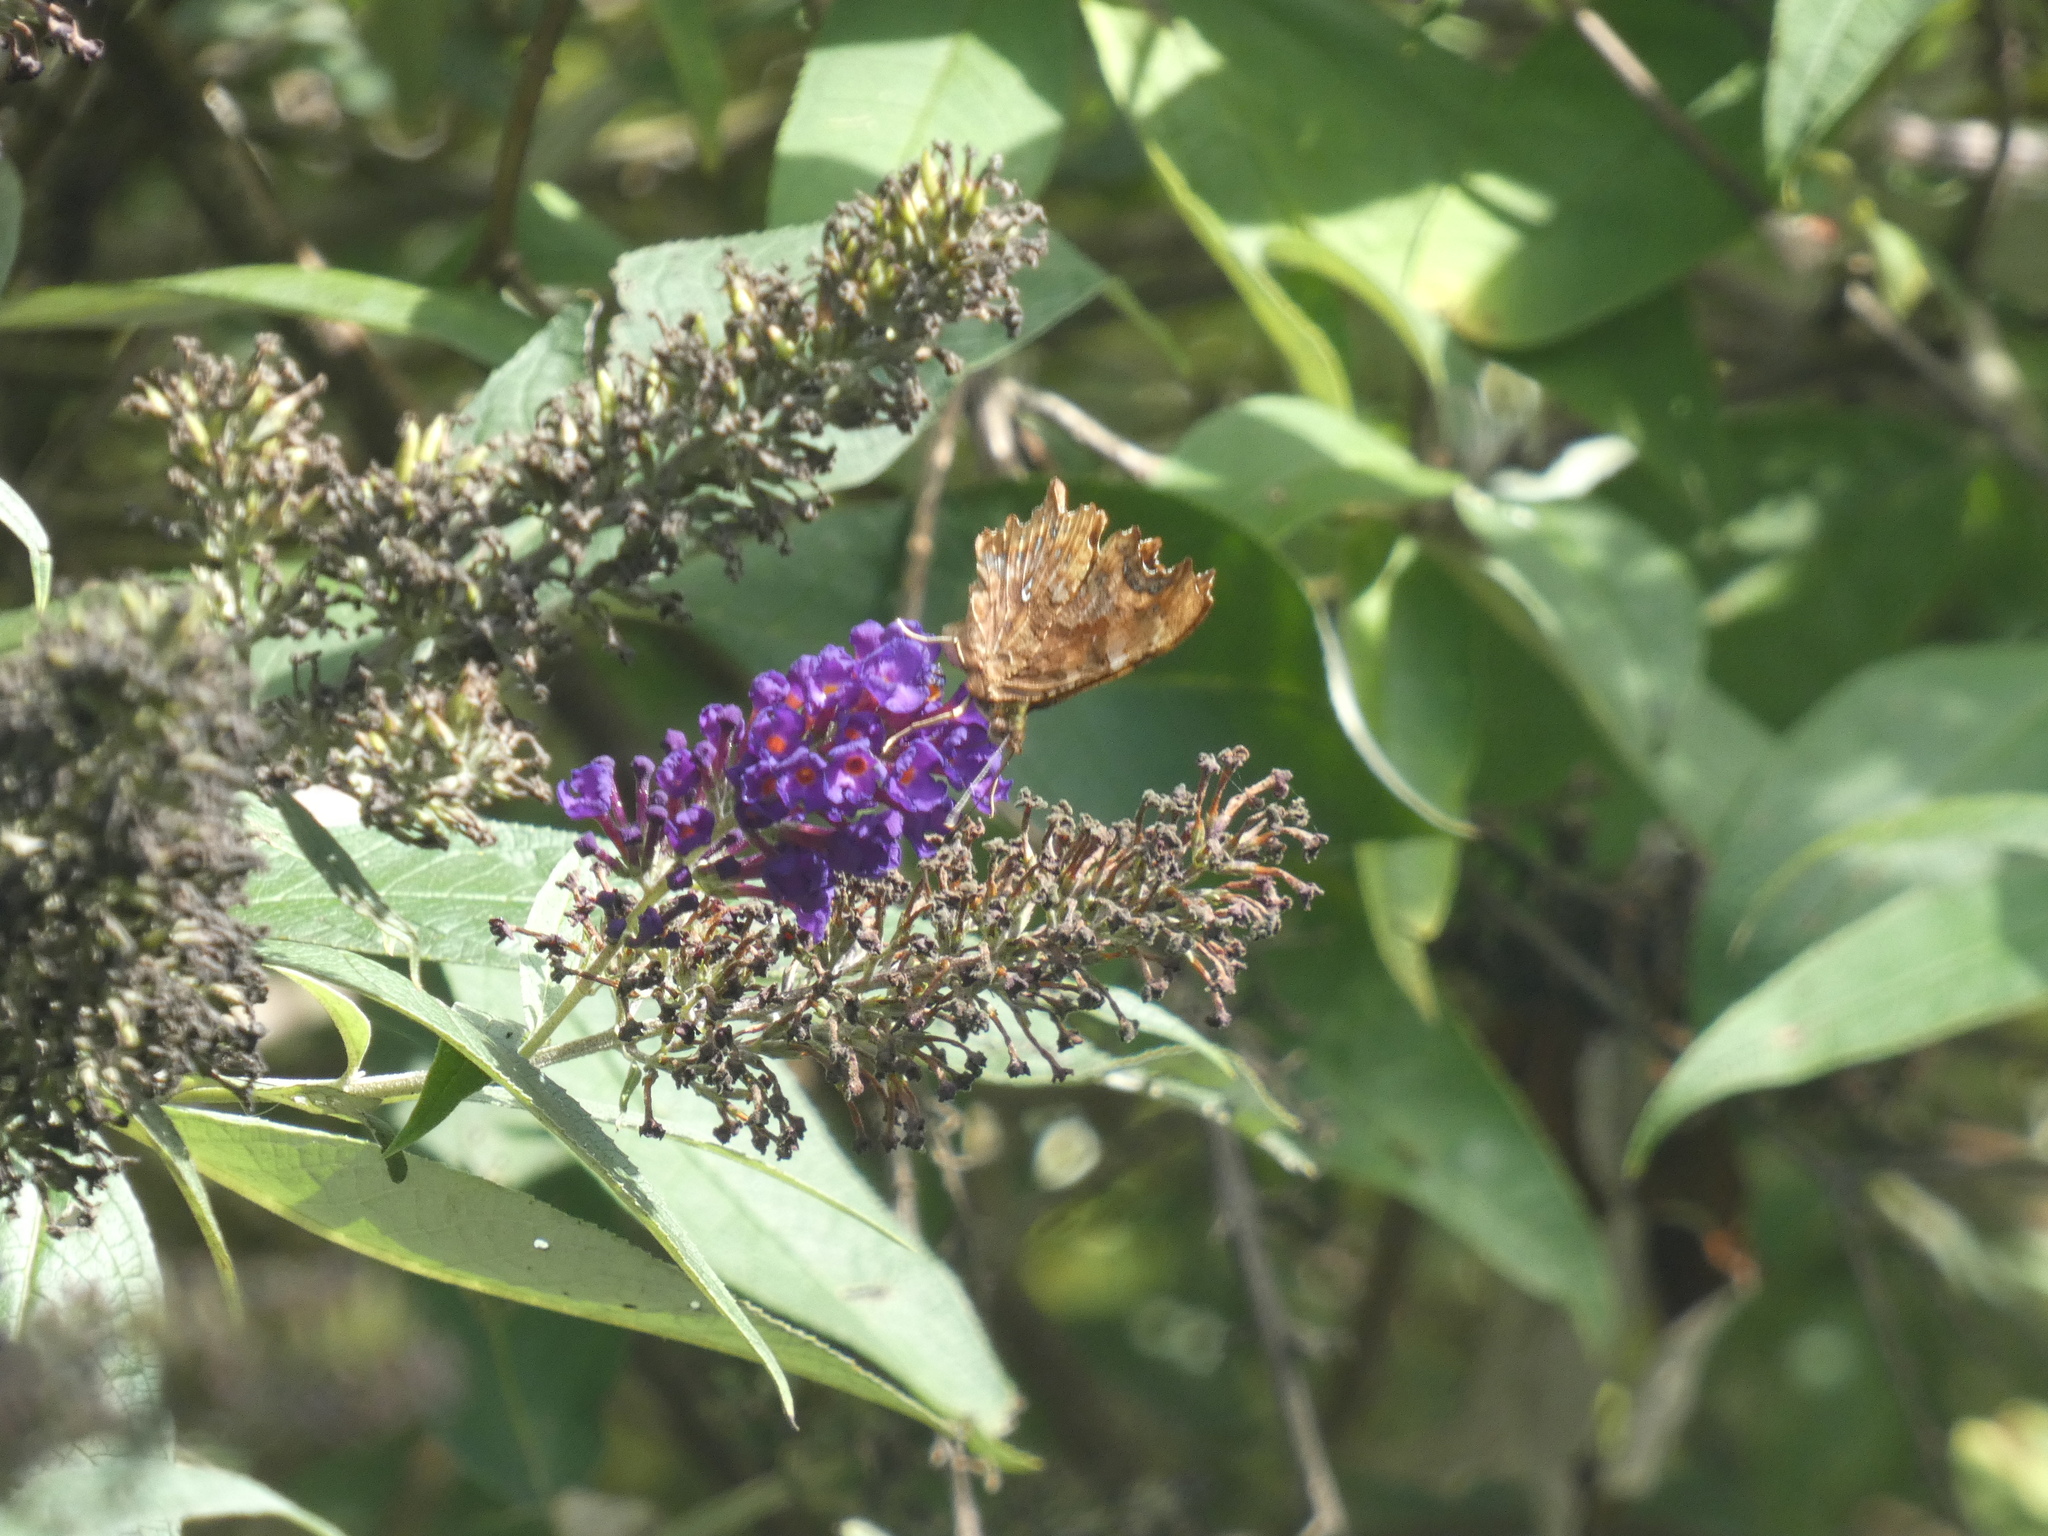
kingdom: Animalia
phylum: Arthropoda
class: Insecta
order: Lepidoptera
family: Nymphalidae
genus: Polygonia
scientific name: Polygonia c-album
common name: Comma
